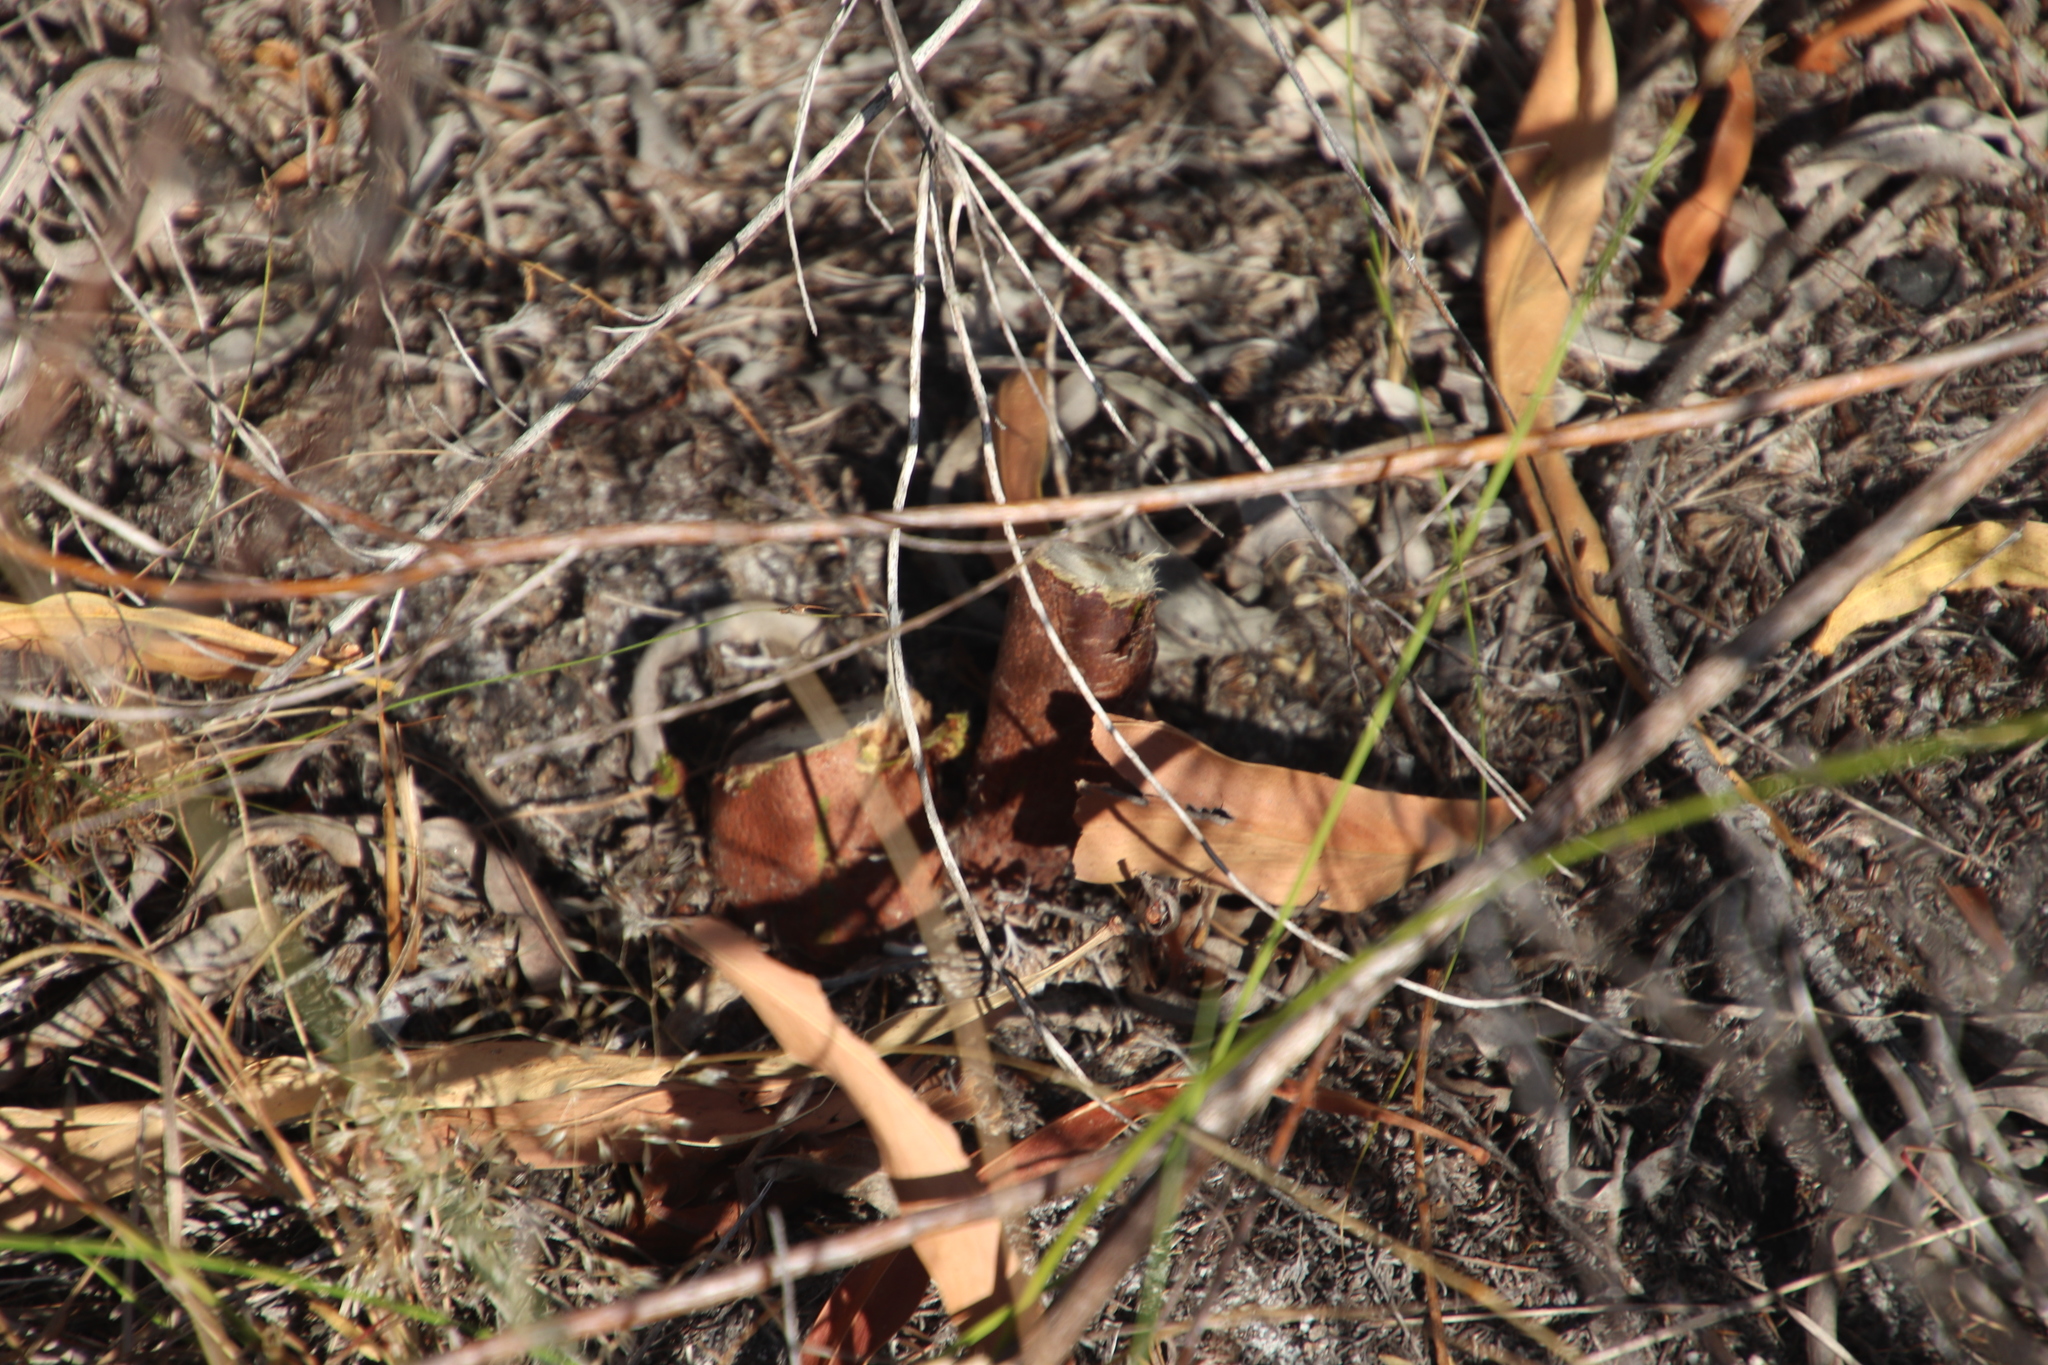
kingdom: Plantae
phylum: Tracheophyta
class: Magnoliopsida
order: Fabales
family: Fabaceae
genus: Acacia
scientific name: Acacia saligna
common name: Orange wattle
